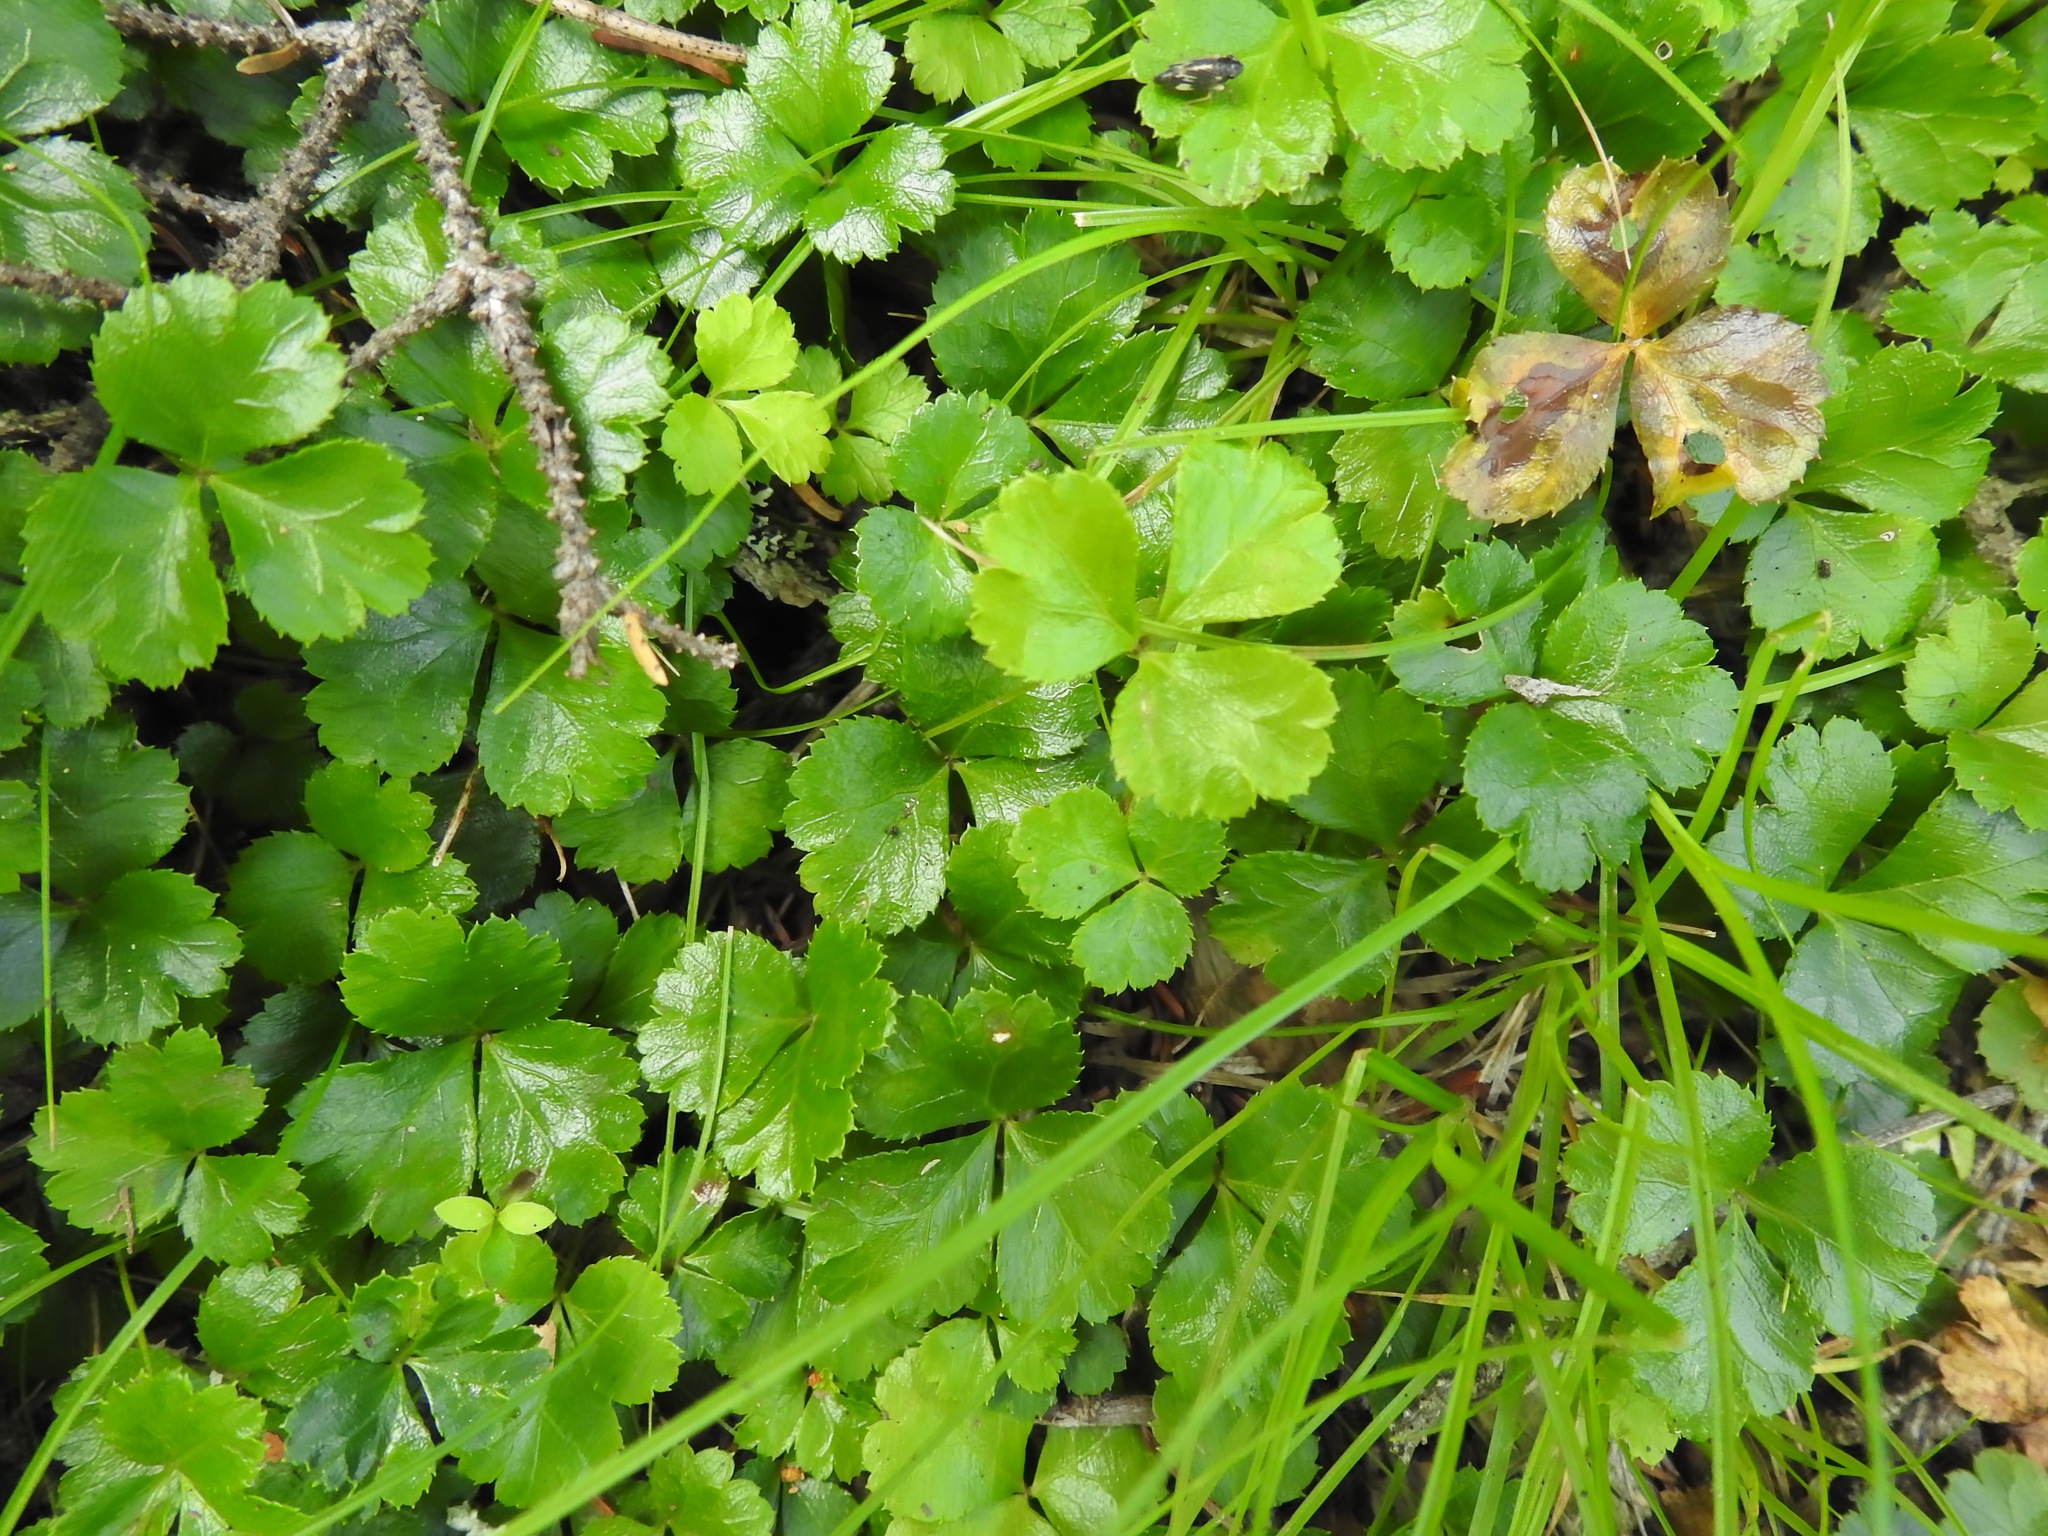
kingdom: Plantae
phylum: Tracheophyta
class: Magnoliopsida
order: Ranunculales
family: Ranunculaceae
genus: Coptis
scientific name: Coptis trifolia
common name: Canker-root
